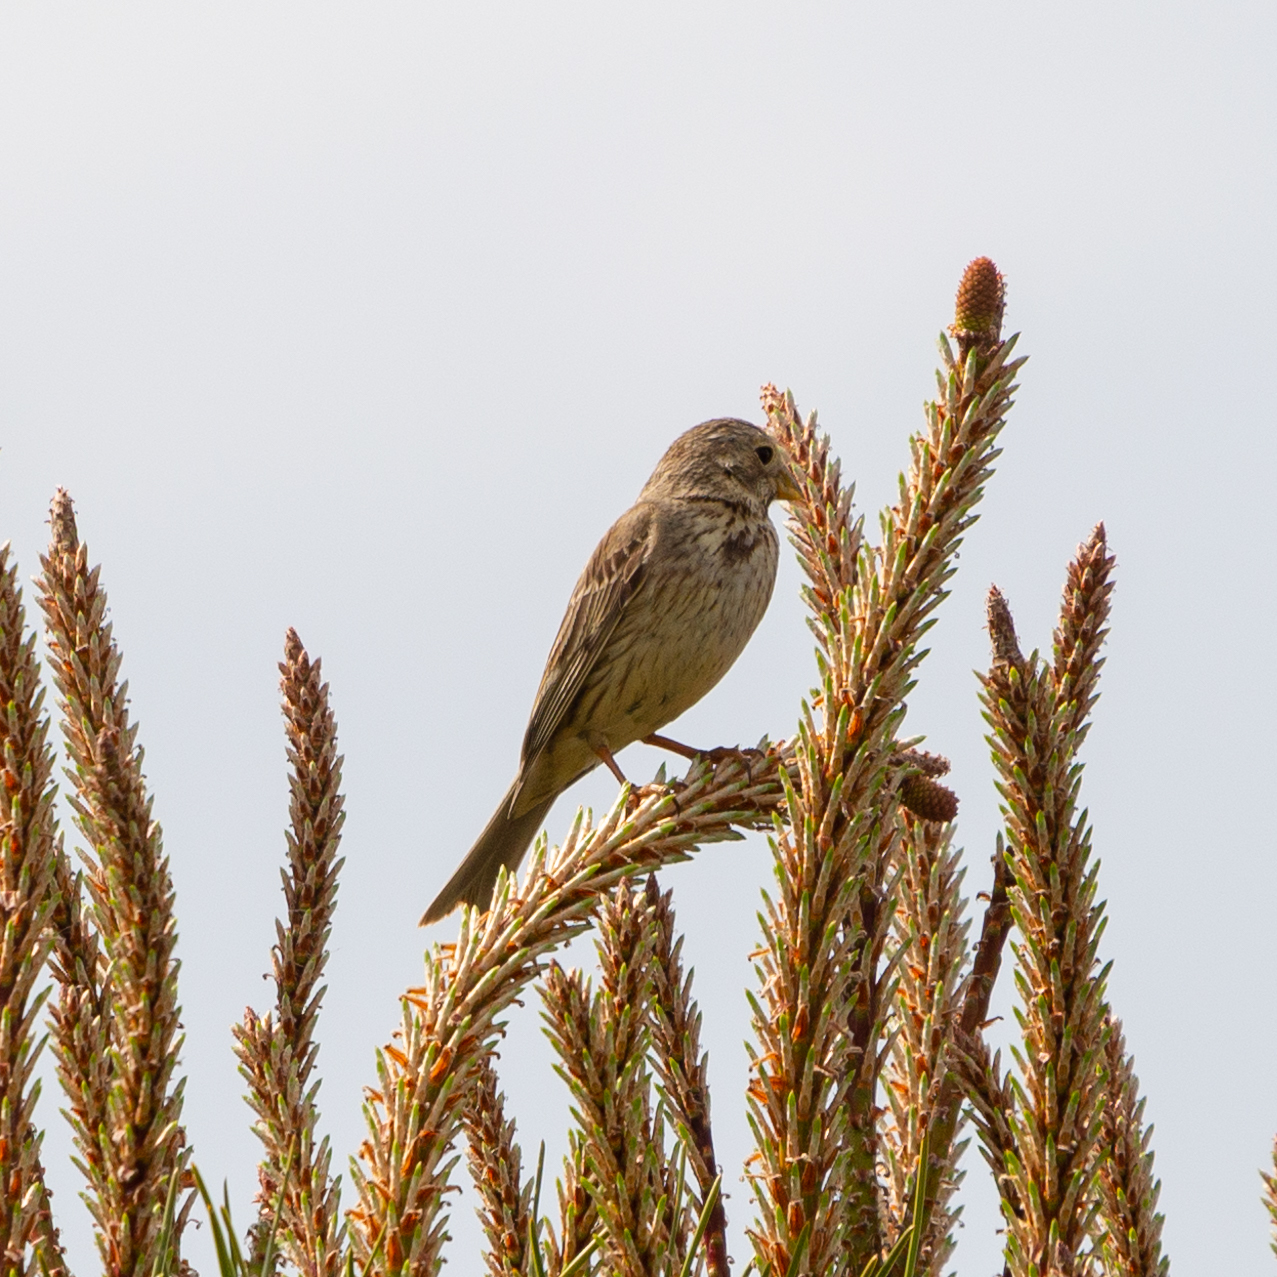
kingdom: Animalia
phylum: Chordata
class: Aves
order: Passeriformes
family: Emberizidae
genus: Emberiza
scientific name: Emberiza calandra
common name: Corn bunting
